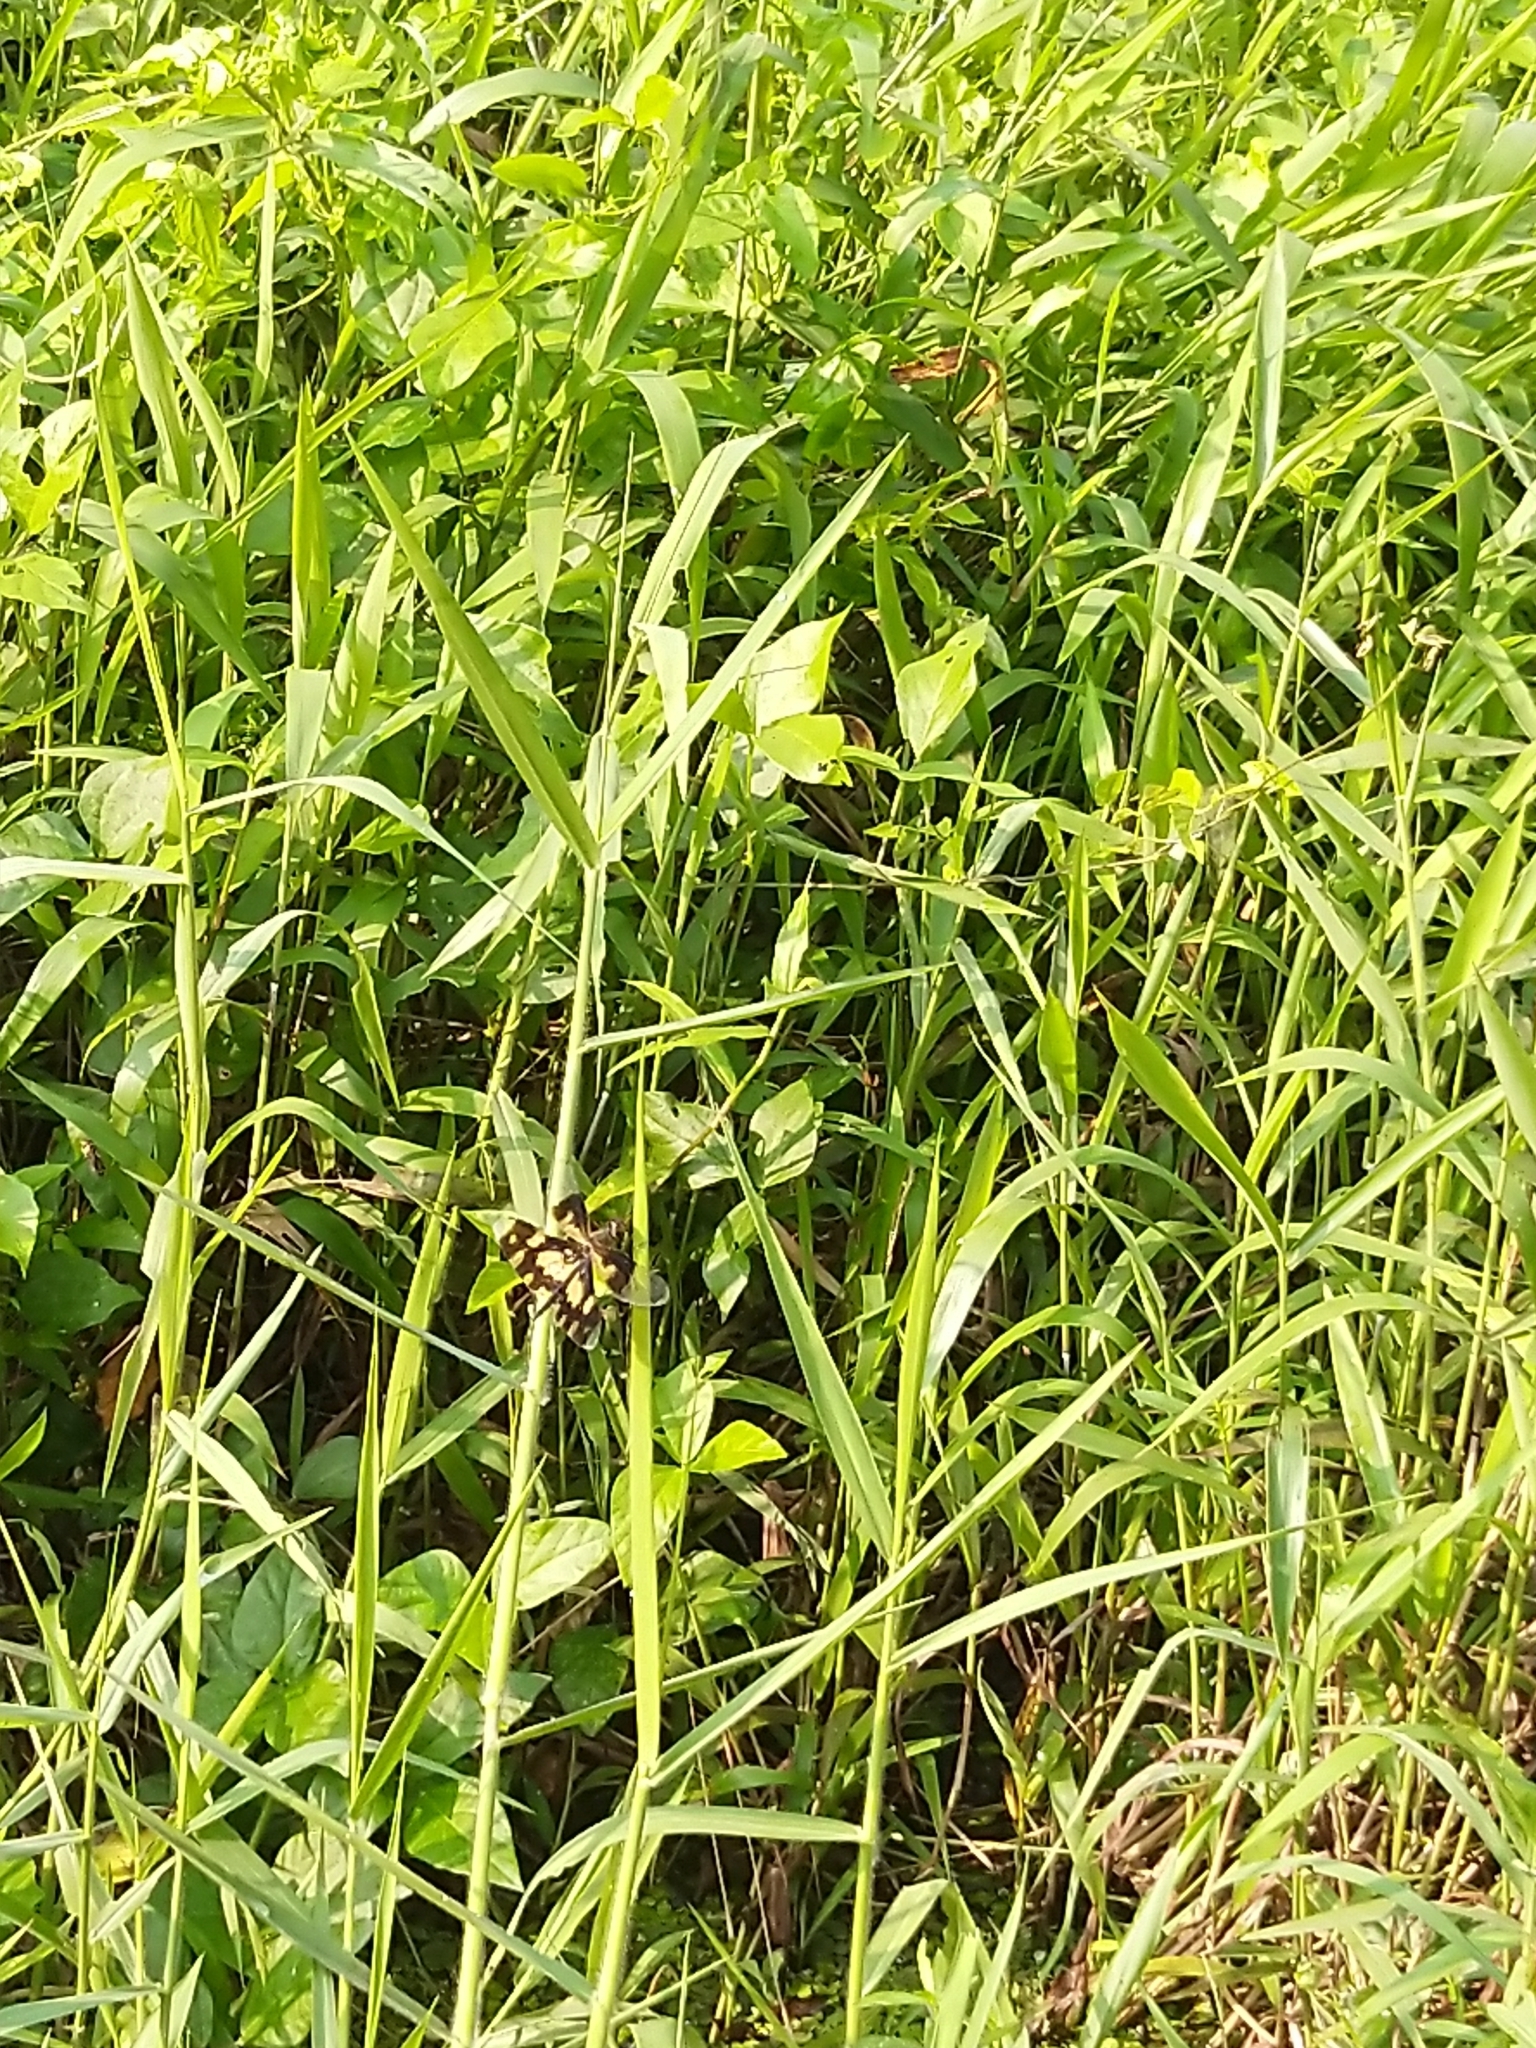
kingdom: Animalia
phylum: Arthropoda
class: Insecta
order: Odonata
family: Libellulidae
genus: Rhyothemis
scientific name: Rhyothemis variegata
